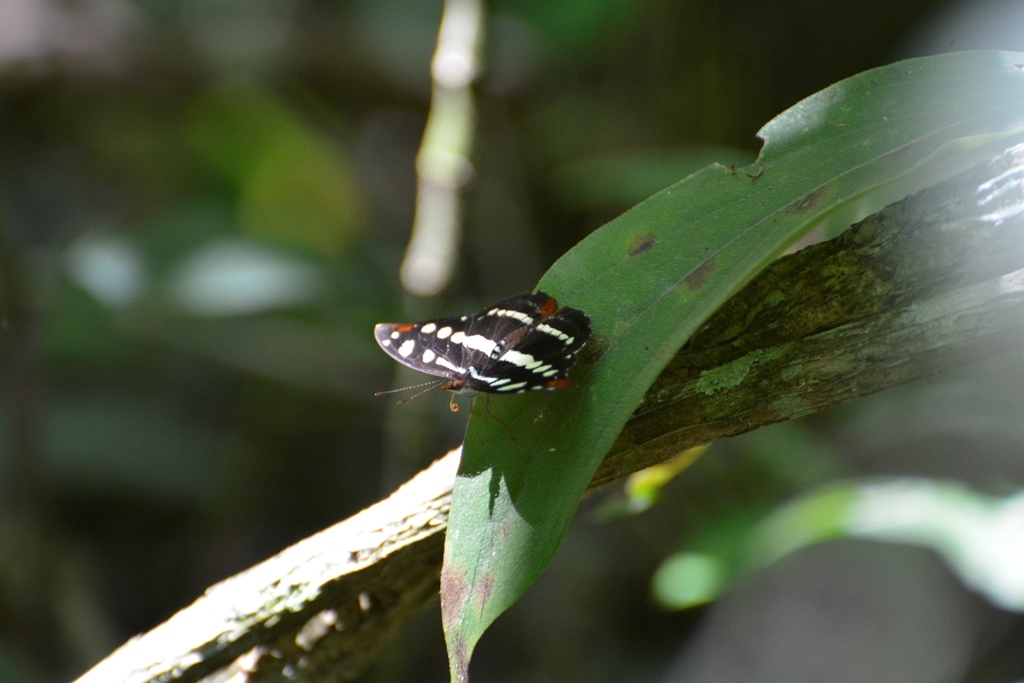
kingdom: Animalia
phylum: Arthropoda
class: Insecta
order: Lepidoptera
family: Nymphalidae
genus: Catonephele
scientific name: Catonephele mexicana
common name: Guatemalan catone
